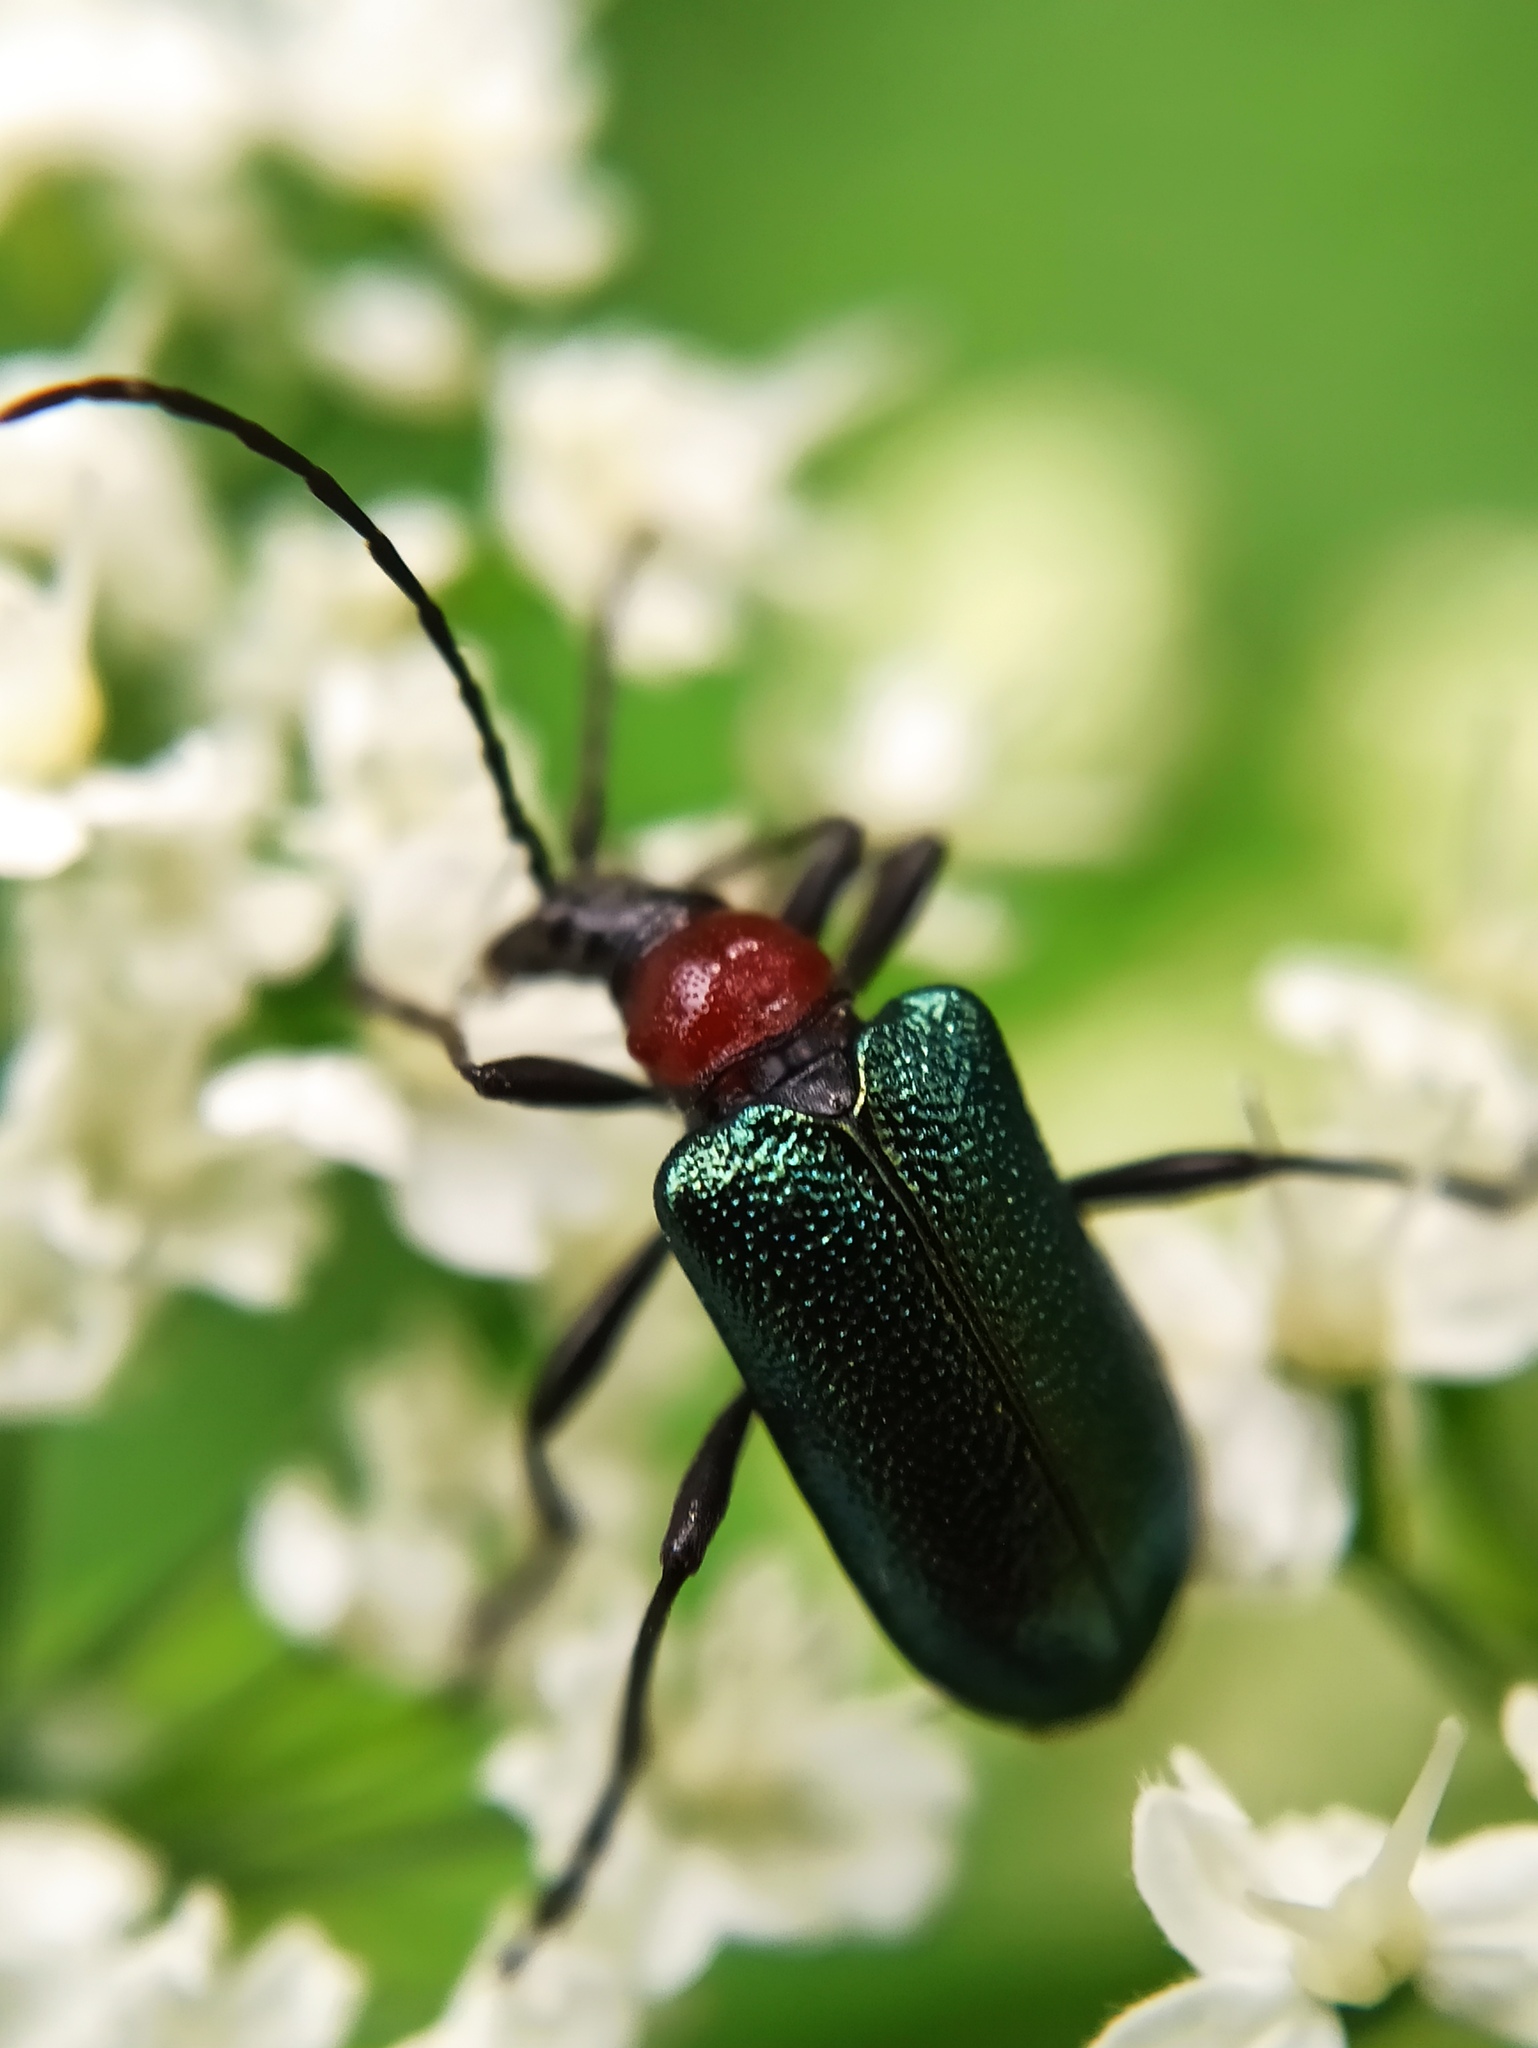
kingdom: Animalia
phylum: Arthropoda
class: Insecta
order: Coleoptera
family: Cerambycidae
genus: Gaurotes
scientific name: Gaurotes virginea
